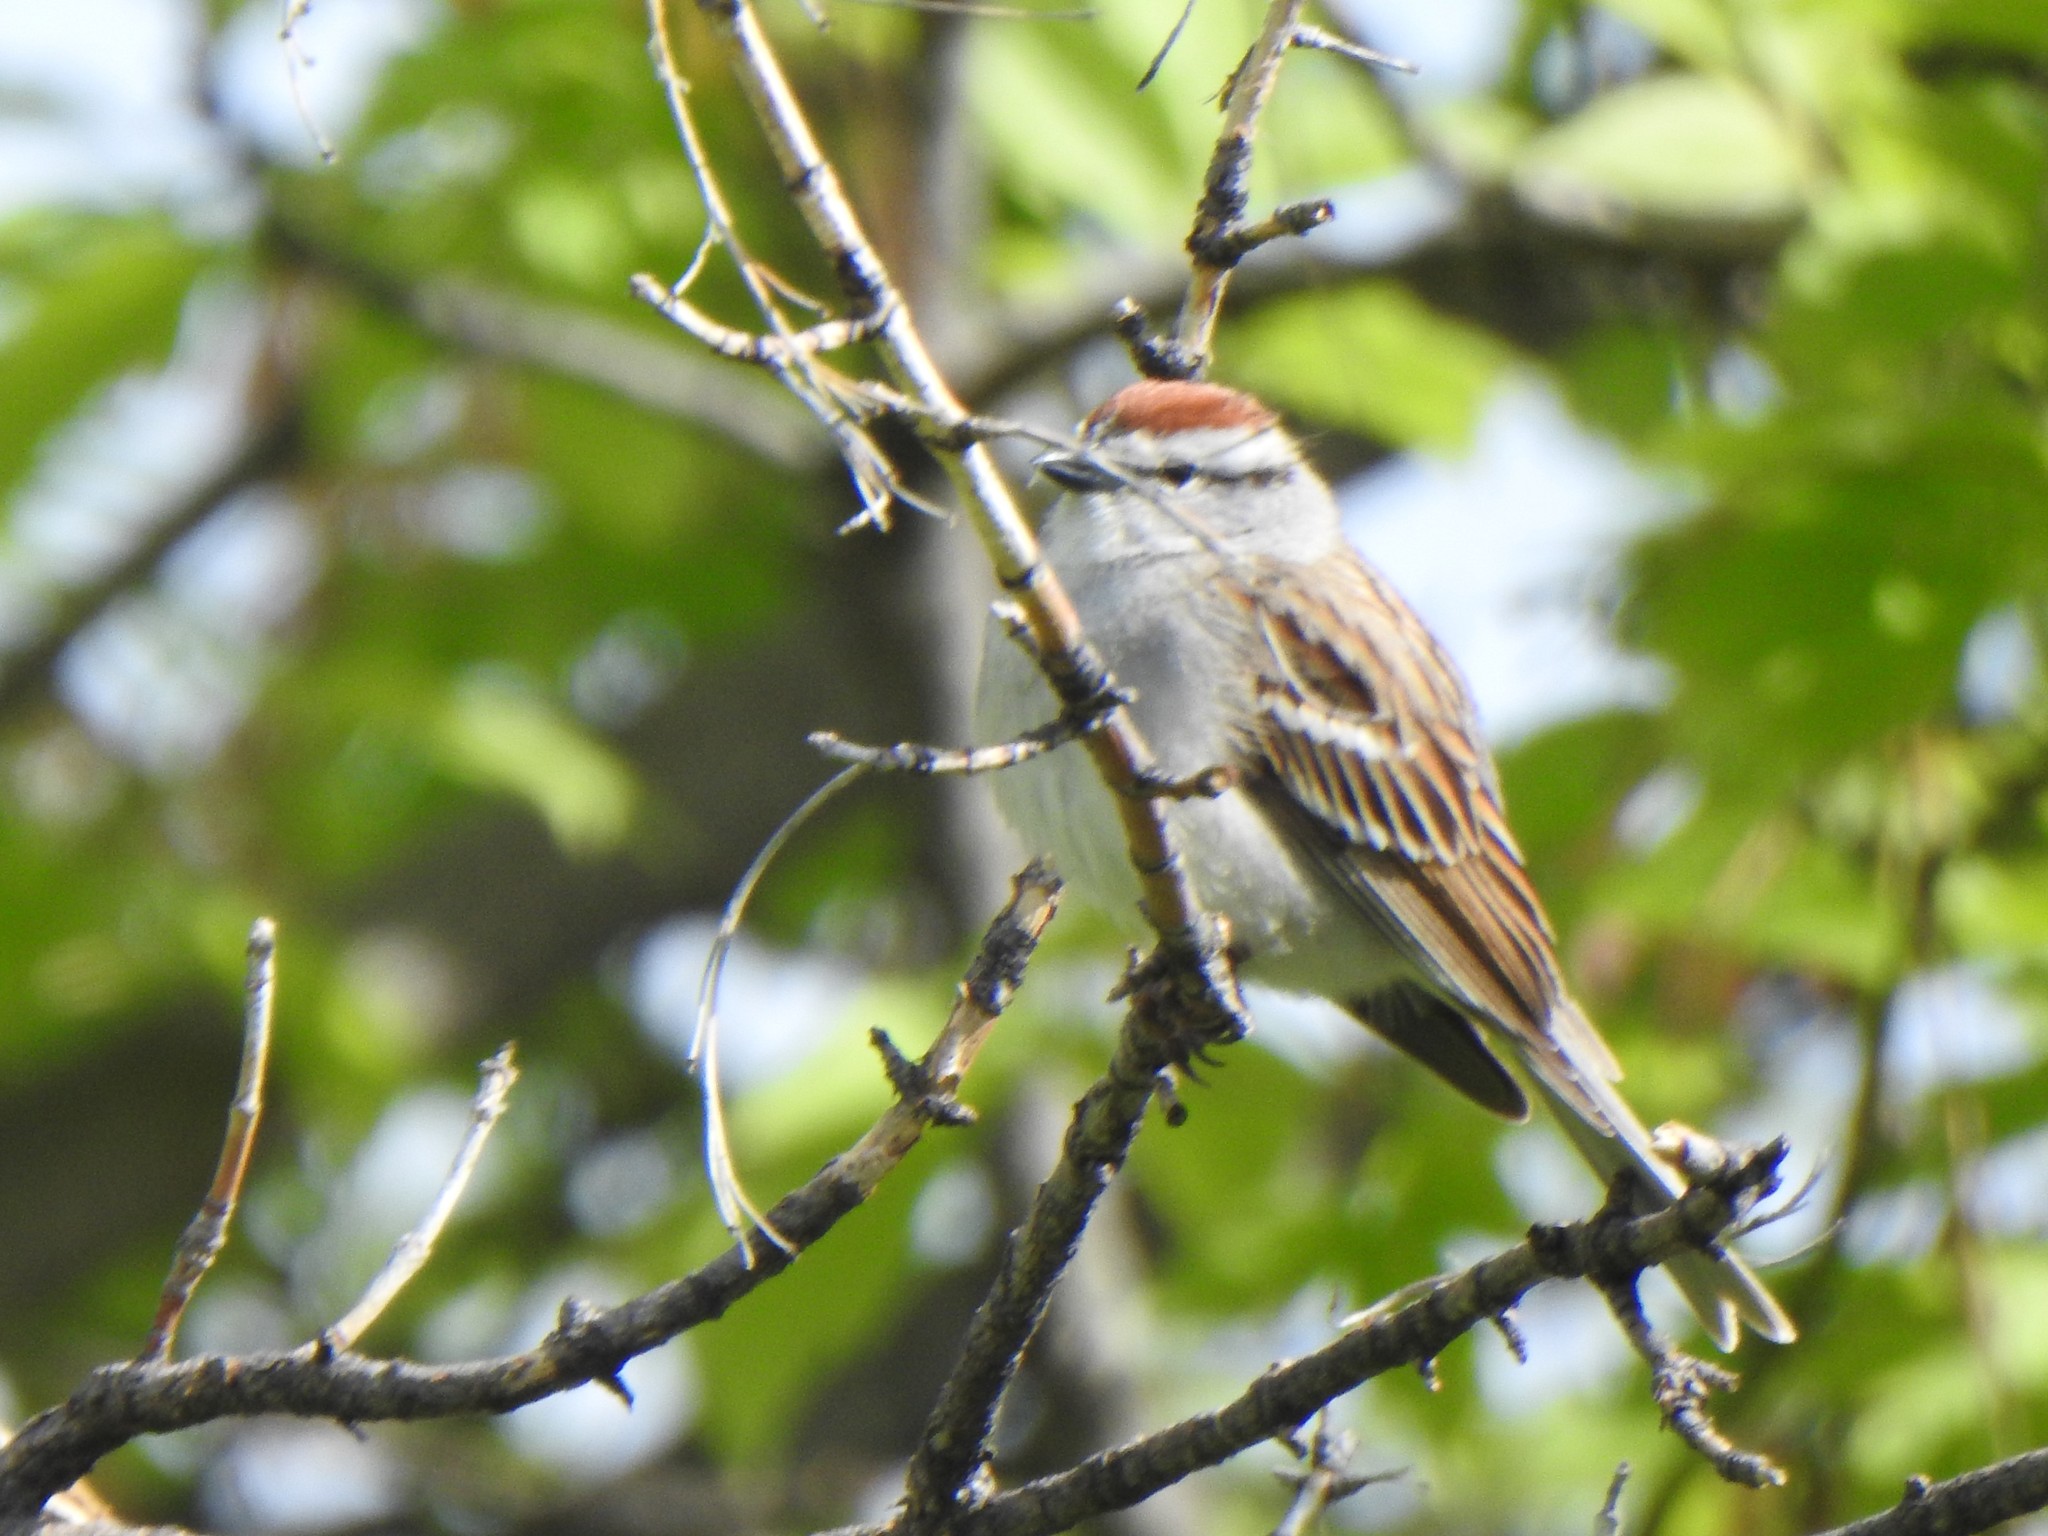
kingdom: Animalia
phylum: Chordata
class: Aves
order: Passeriformes
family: Passerellidae
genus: Spizella
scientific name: Spizella passerina
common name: Chipping sparrow
